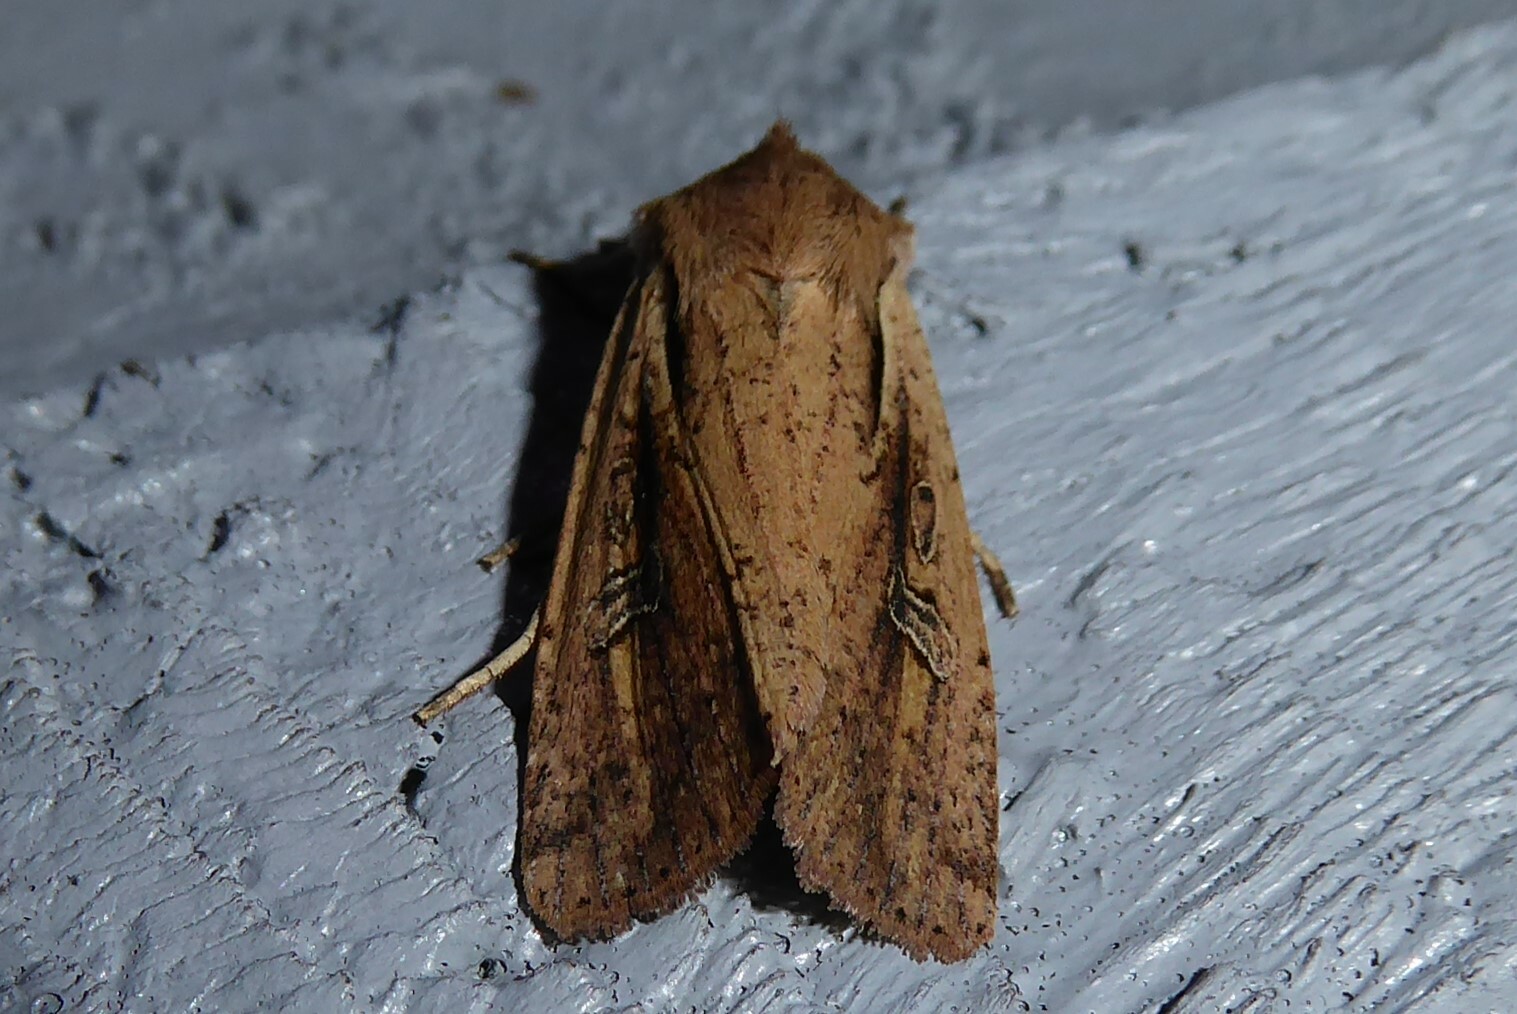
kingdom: Animalia
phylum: Arthropoda
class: Insecta
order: Lepidoptera
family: Noctuidae
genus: Ichneutica
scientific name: Ichneutica atristriga
